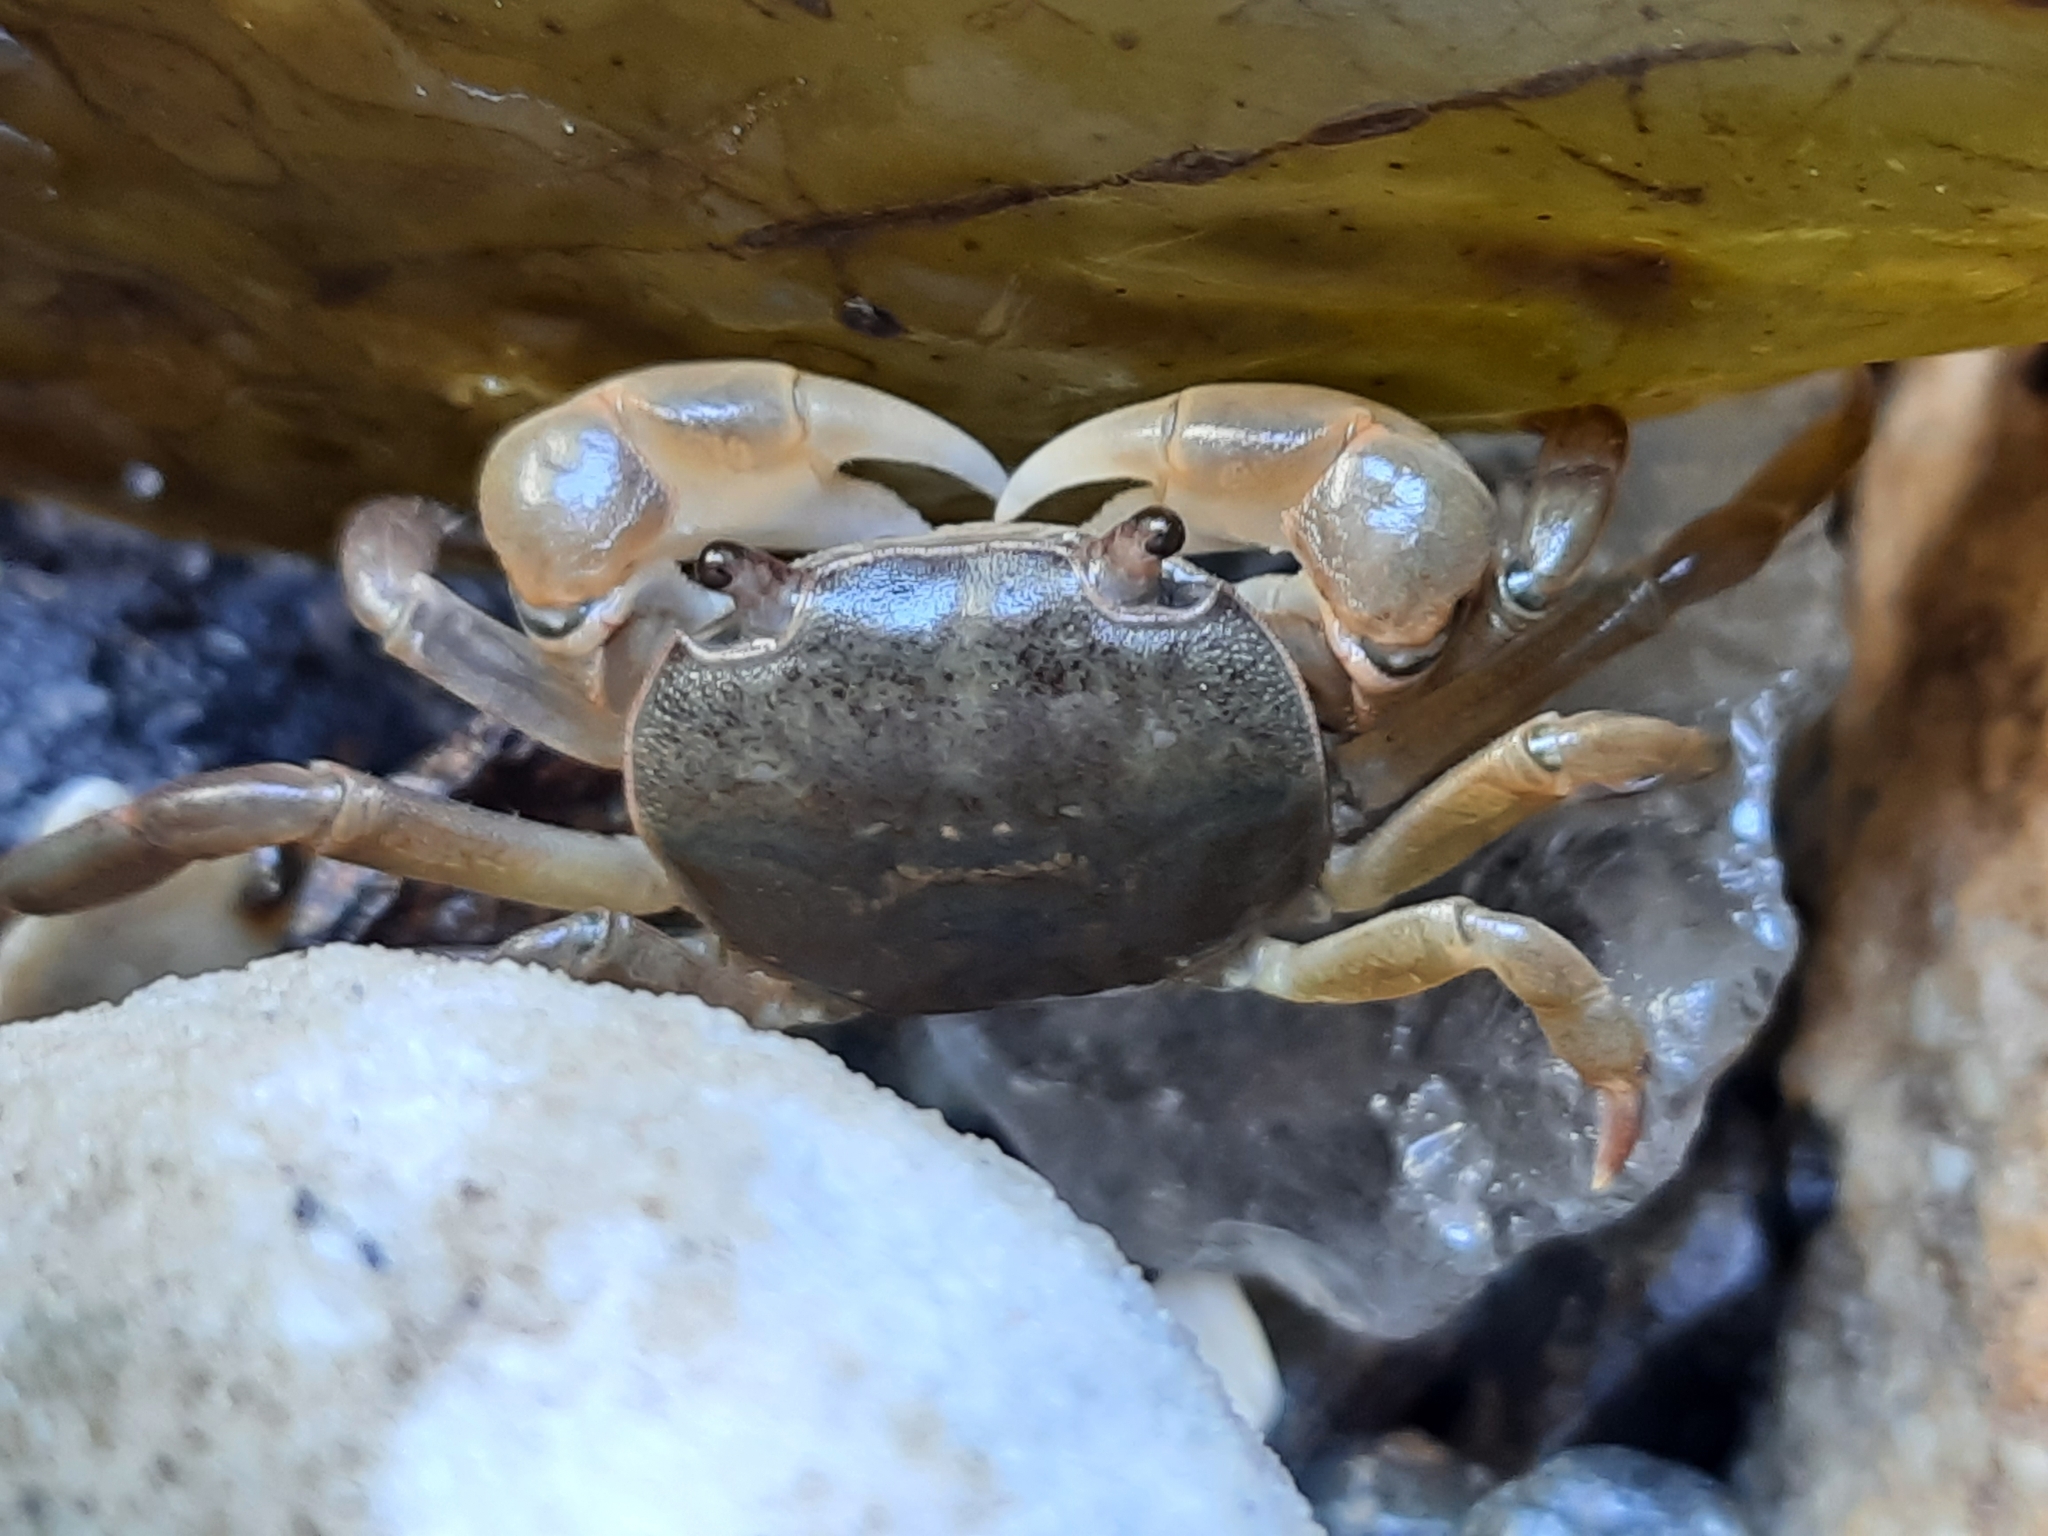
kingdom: Animalia
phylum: Arthropoda
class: Malacostraca
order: Decapoda
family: Varunidae
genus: Cyclograpsus
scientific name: Cyclograpsus audouinii
